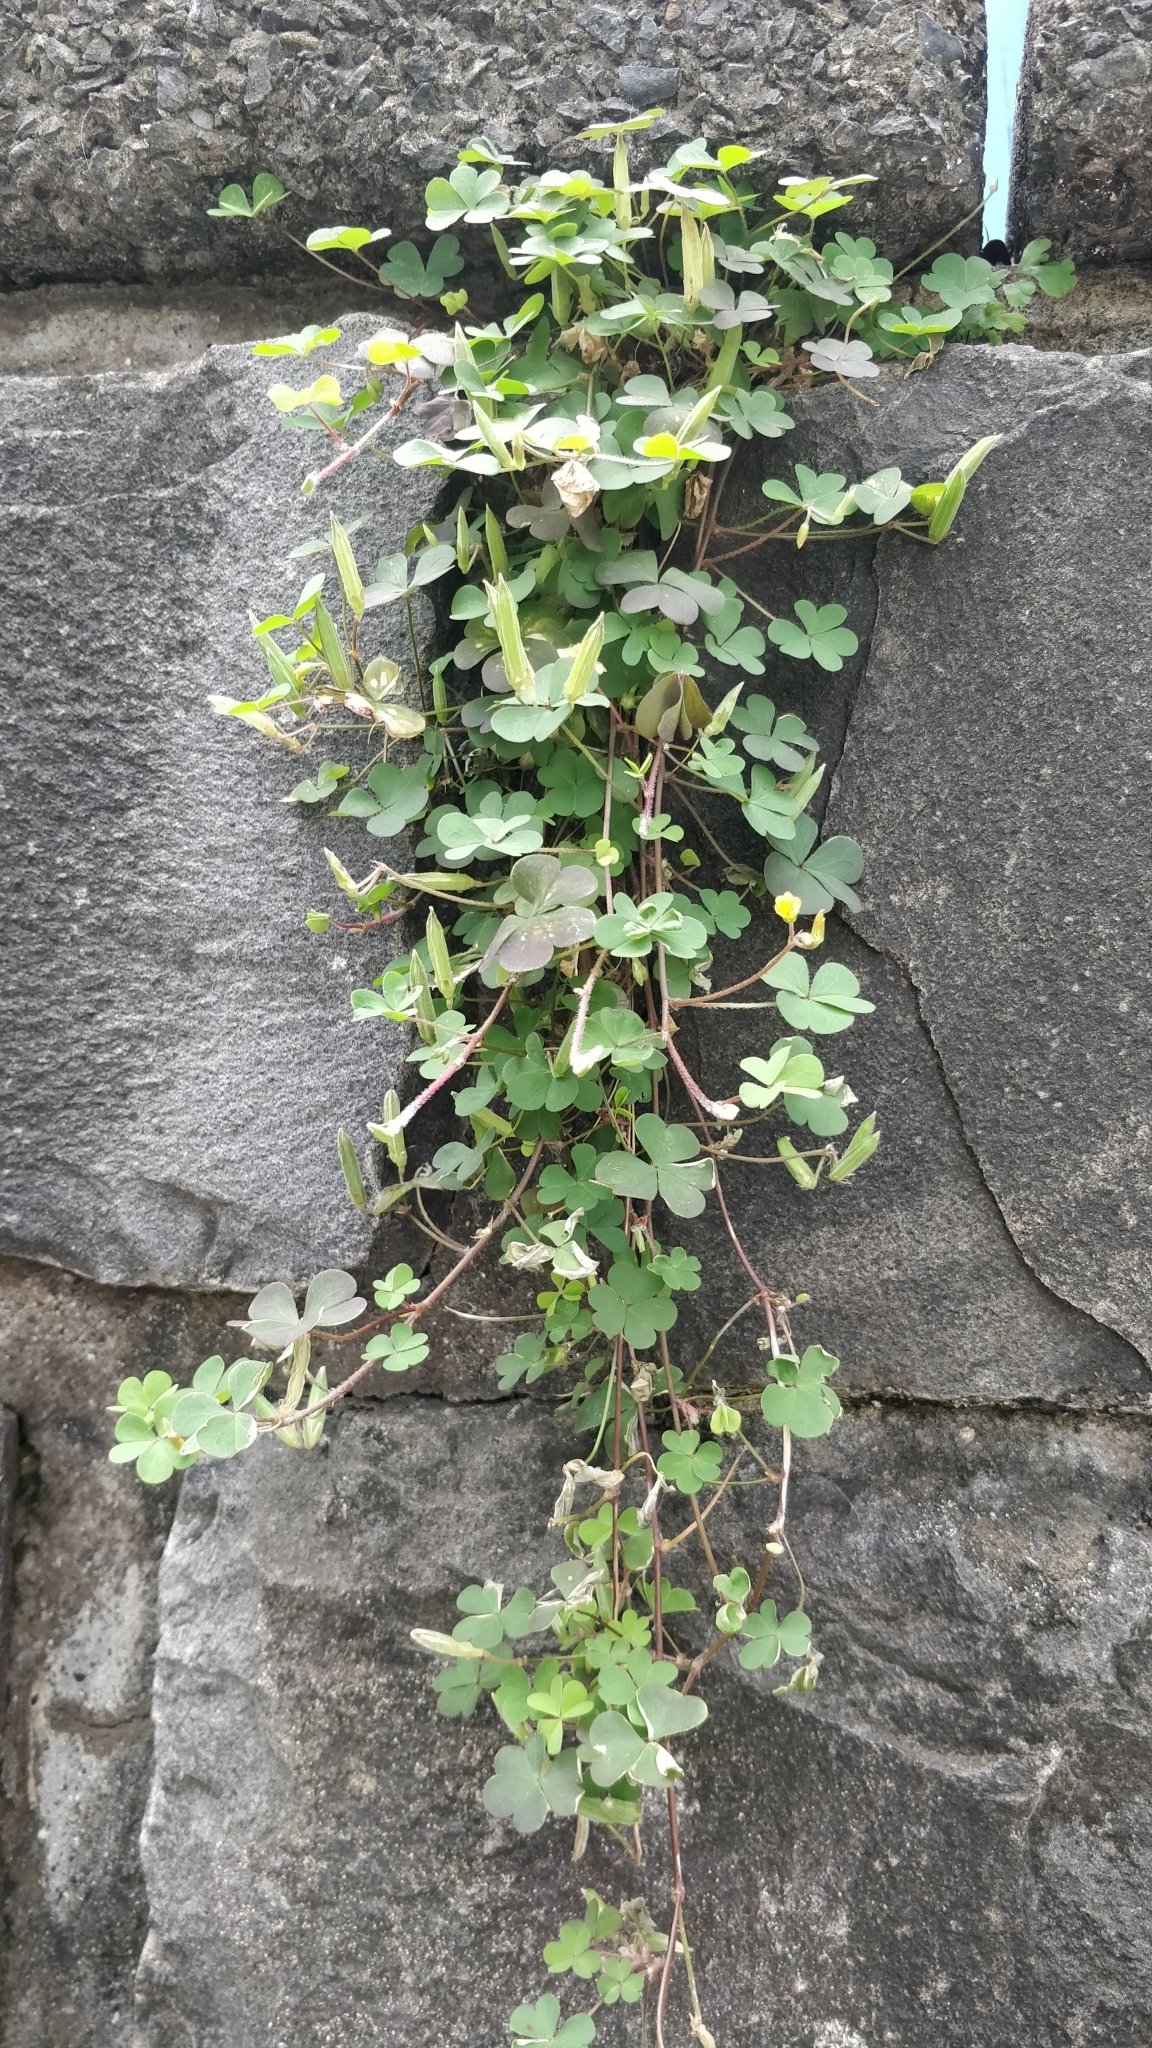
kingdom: Plantae
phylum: Tracheophyta
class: Magnoliopsida
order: Oxalidales
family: Oxalidaceae
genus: Oxalis
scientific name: Oxalis corniculata
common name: Procumbent yellow-sorrel
